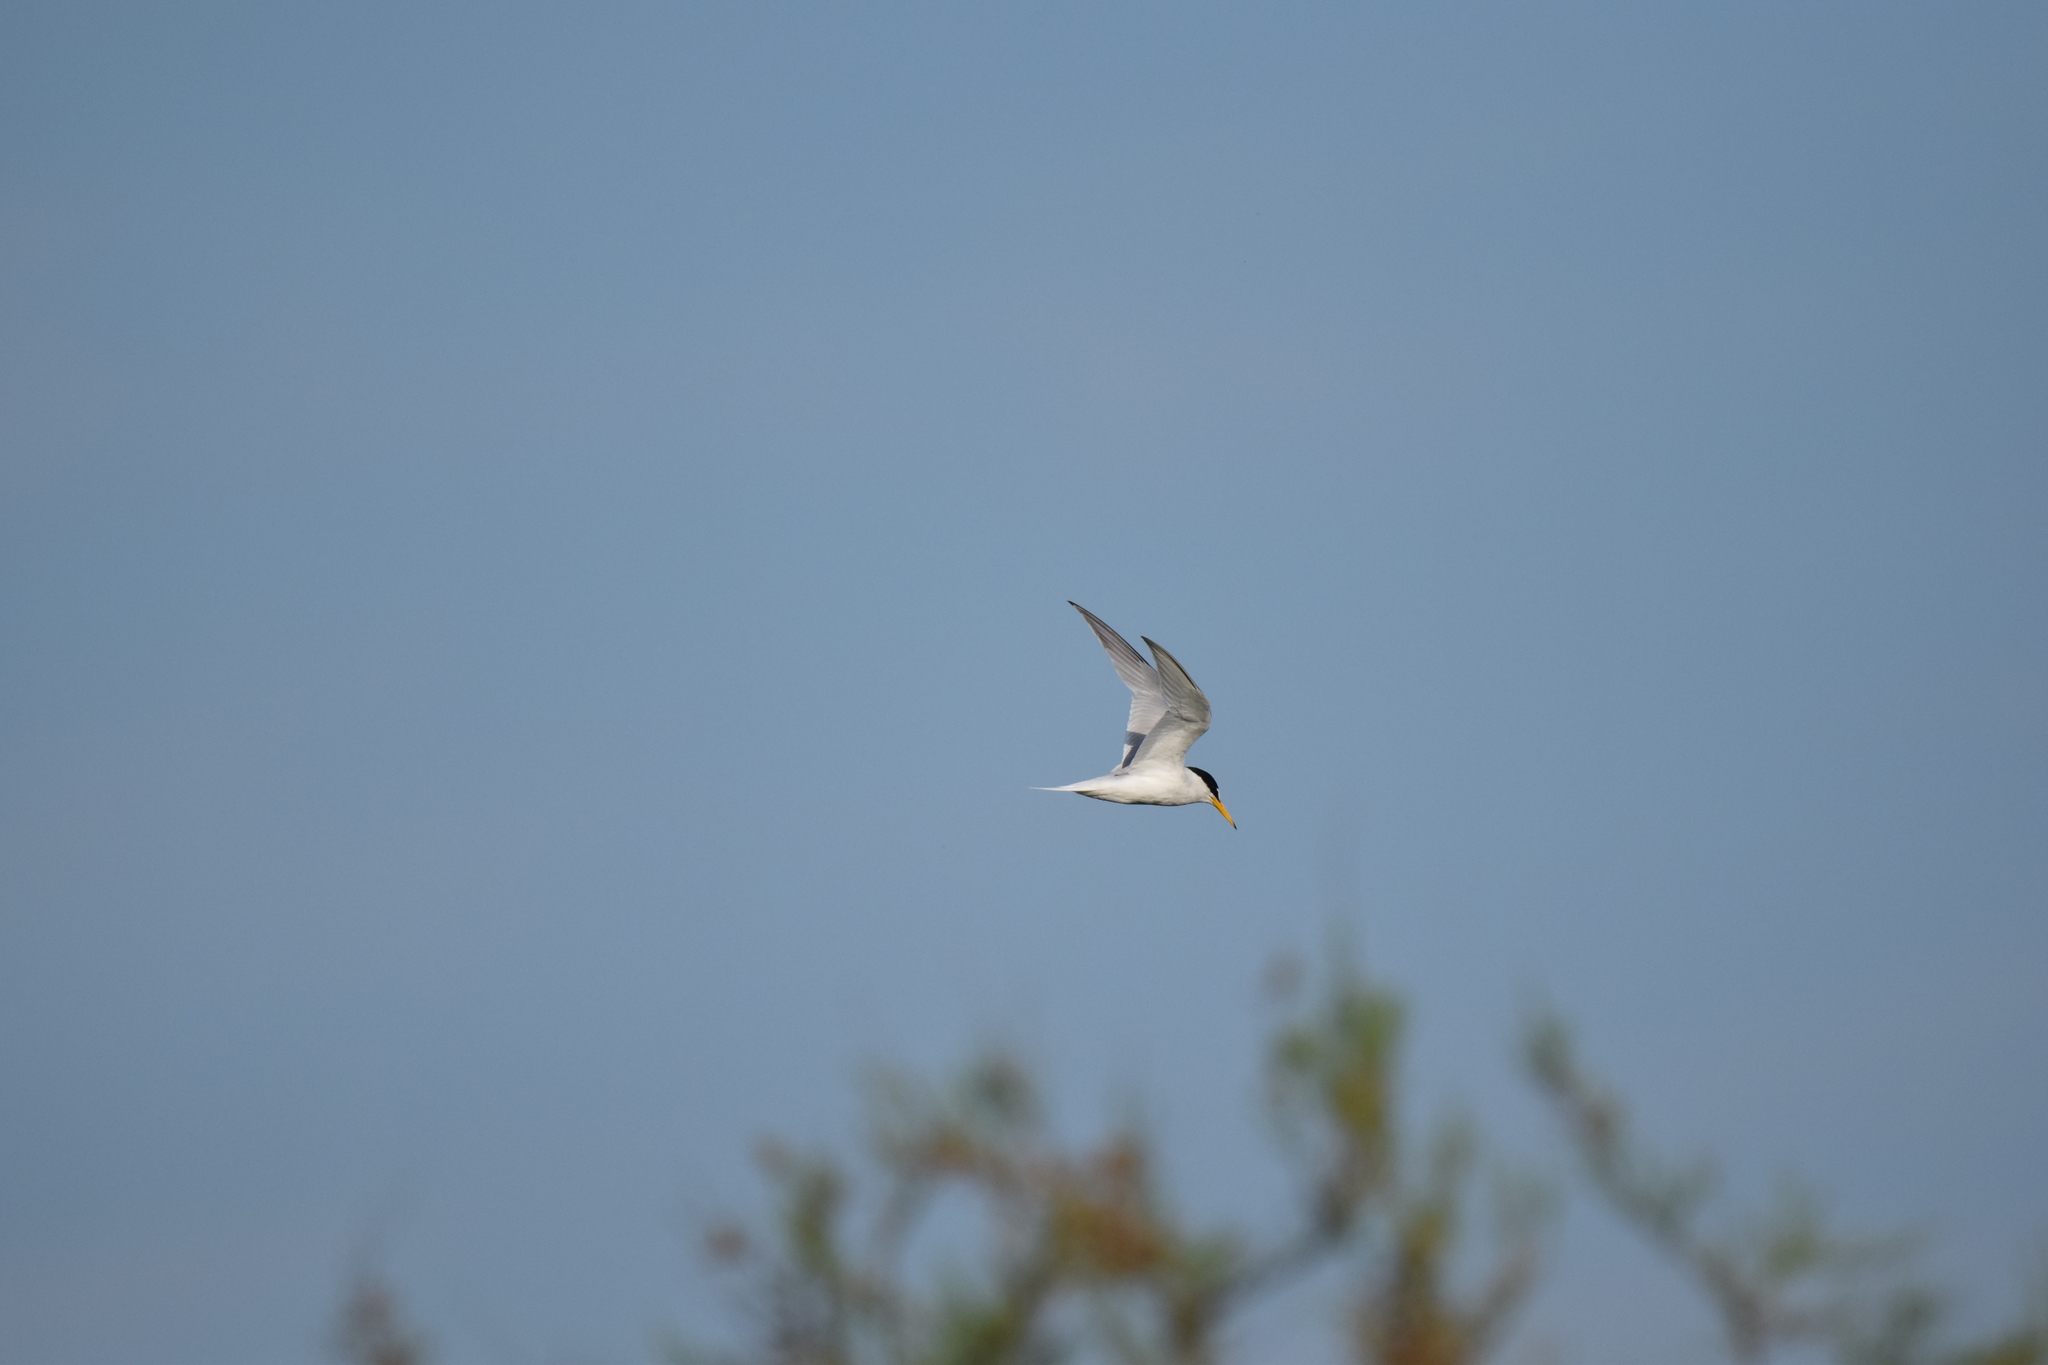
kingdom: Animalia
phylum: Chordata
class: Aves
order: Charadriiformes
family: Laridae
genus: Sternula
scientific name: Sternula albifrons
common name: Little tern
